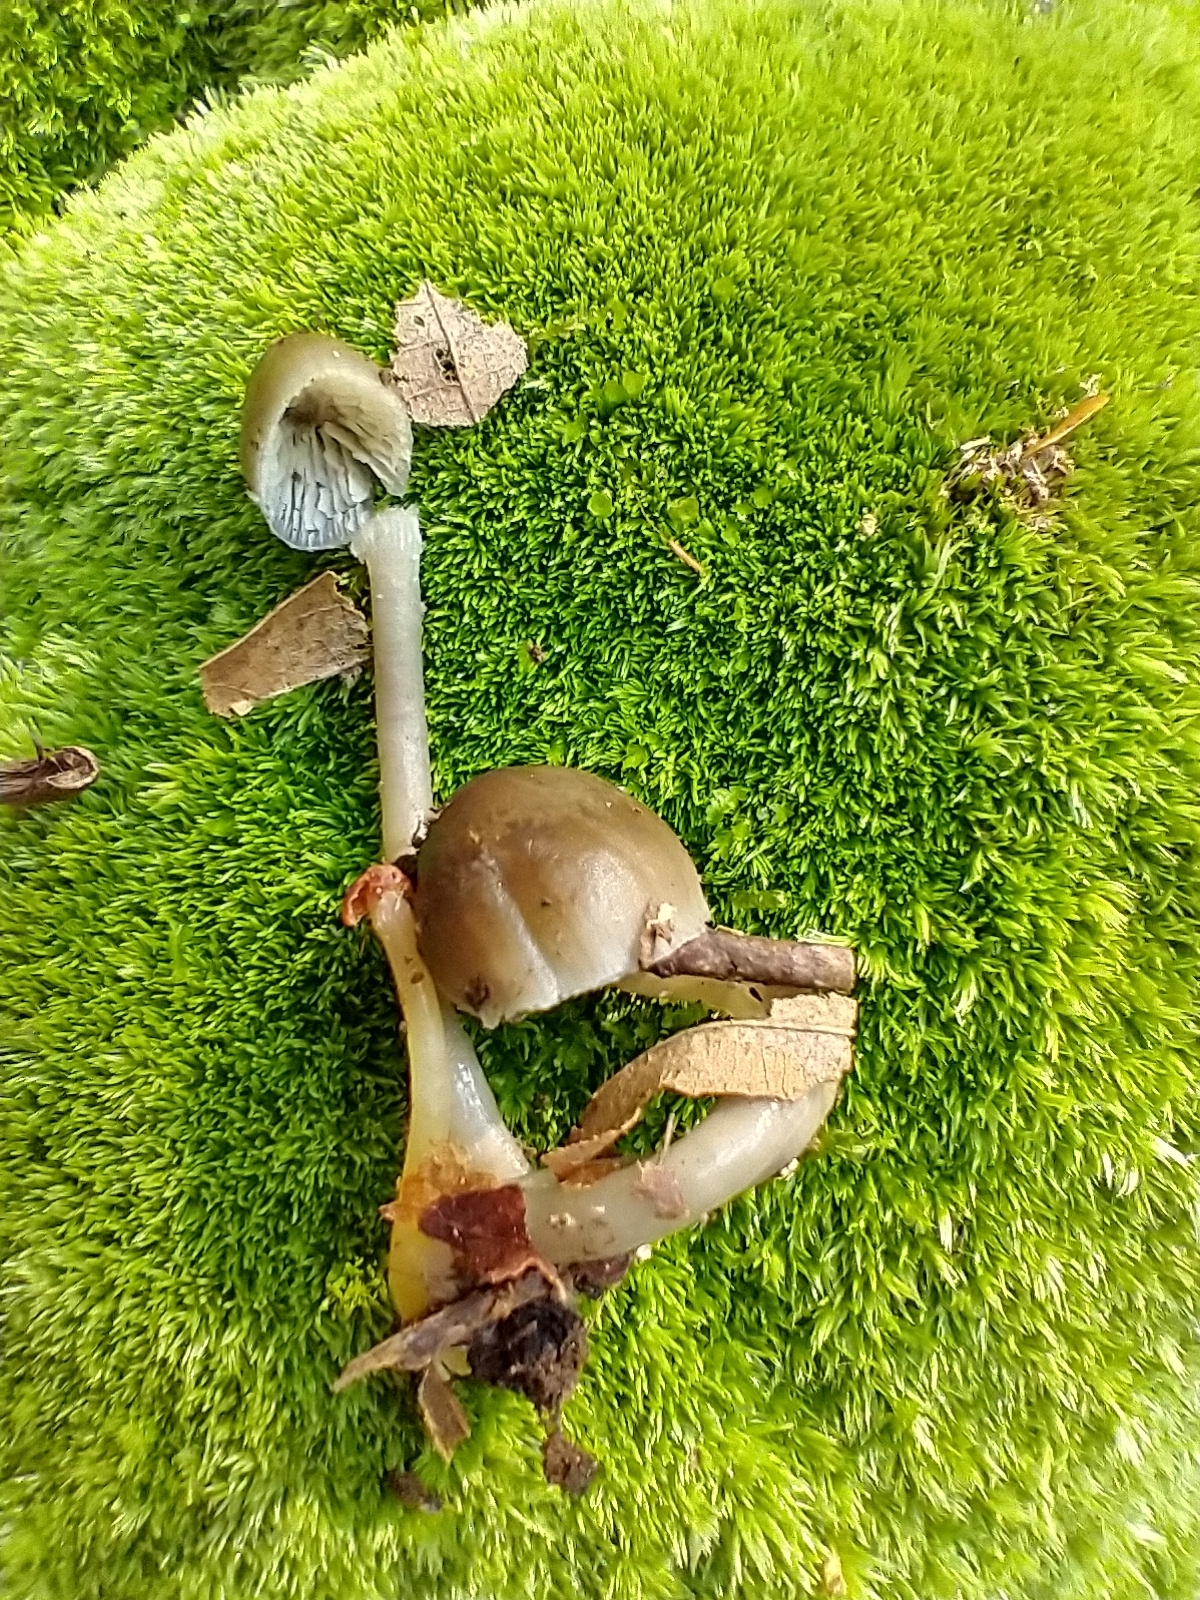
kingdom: Fungi
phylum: Basidiomycota
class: Agaricomycetes
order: Agaricales
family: Hygrophoraceae
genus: Gliophorus
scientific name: Gliophorus irrigatus
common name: Slimy waxcap
